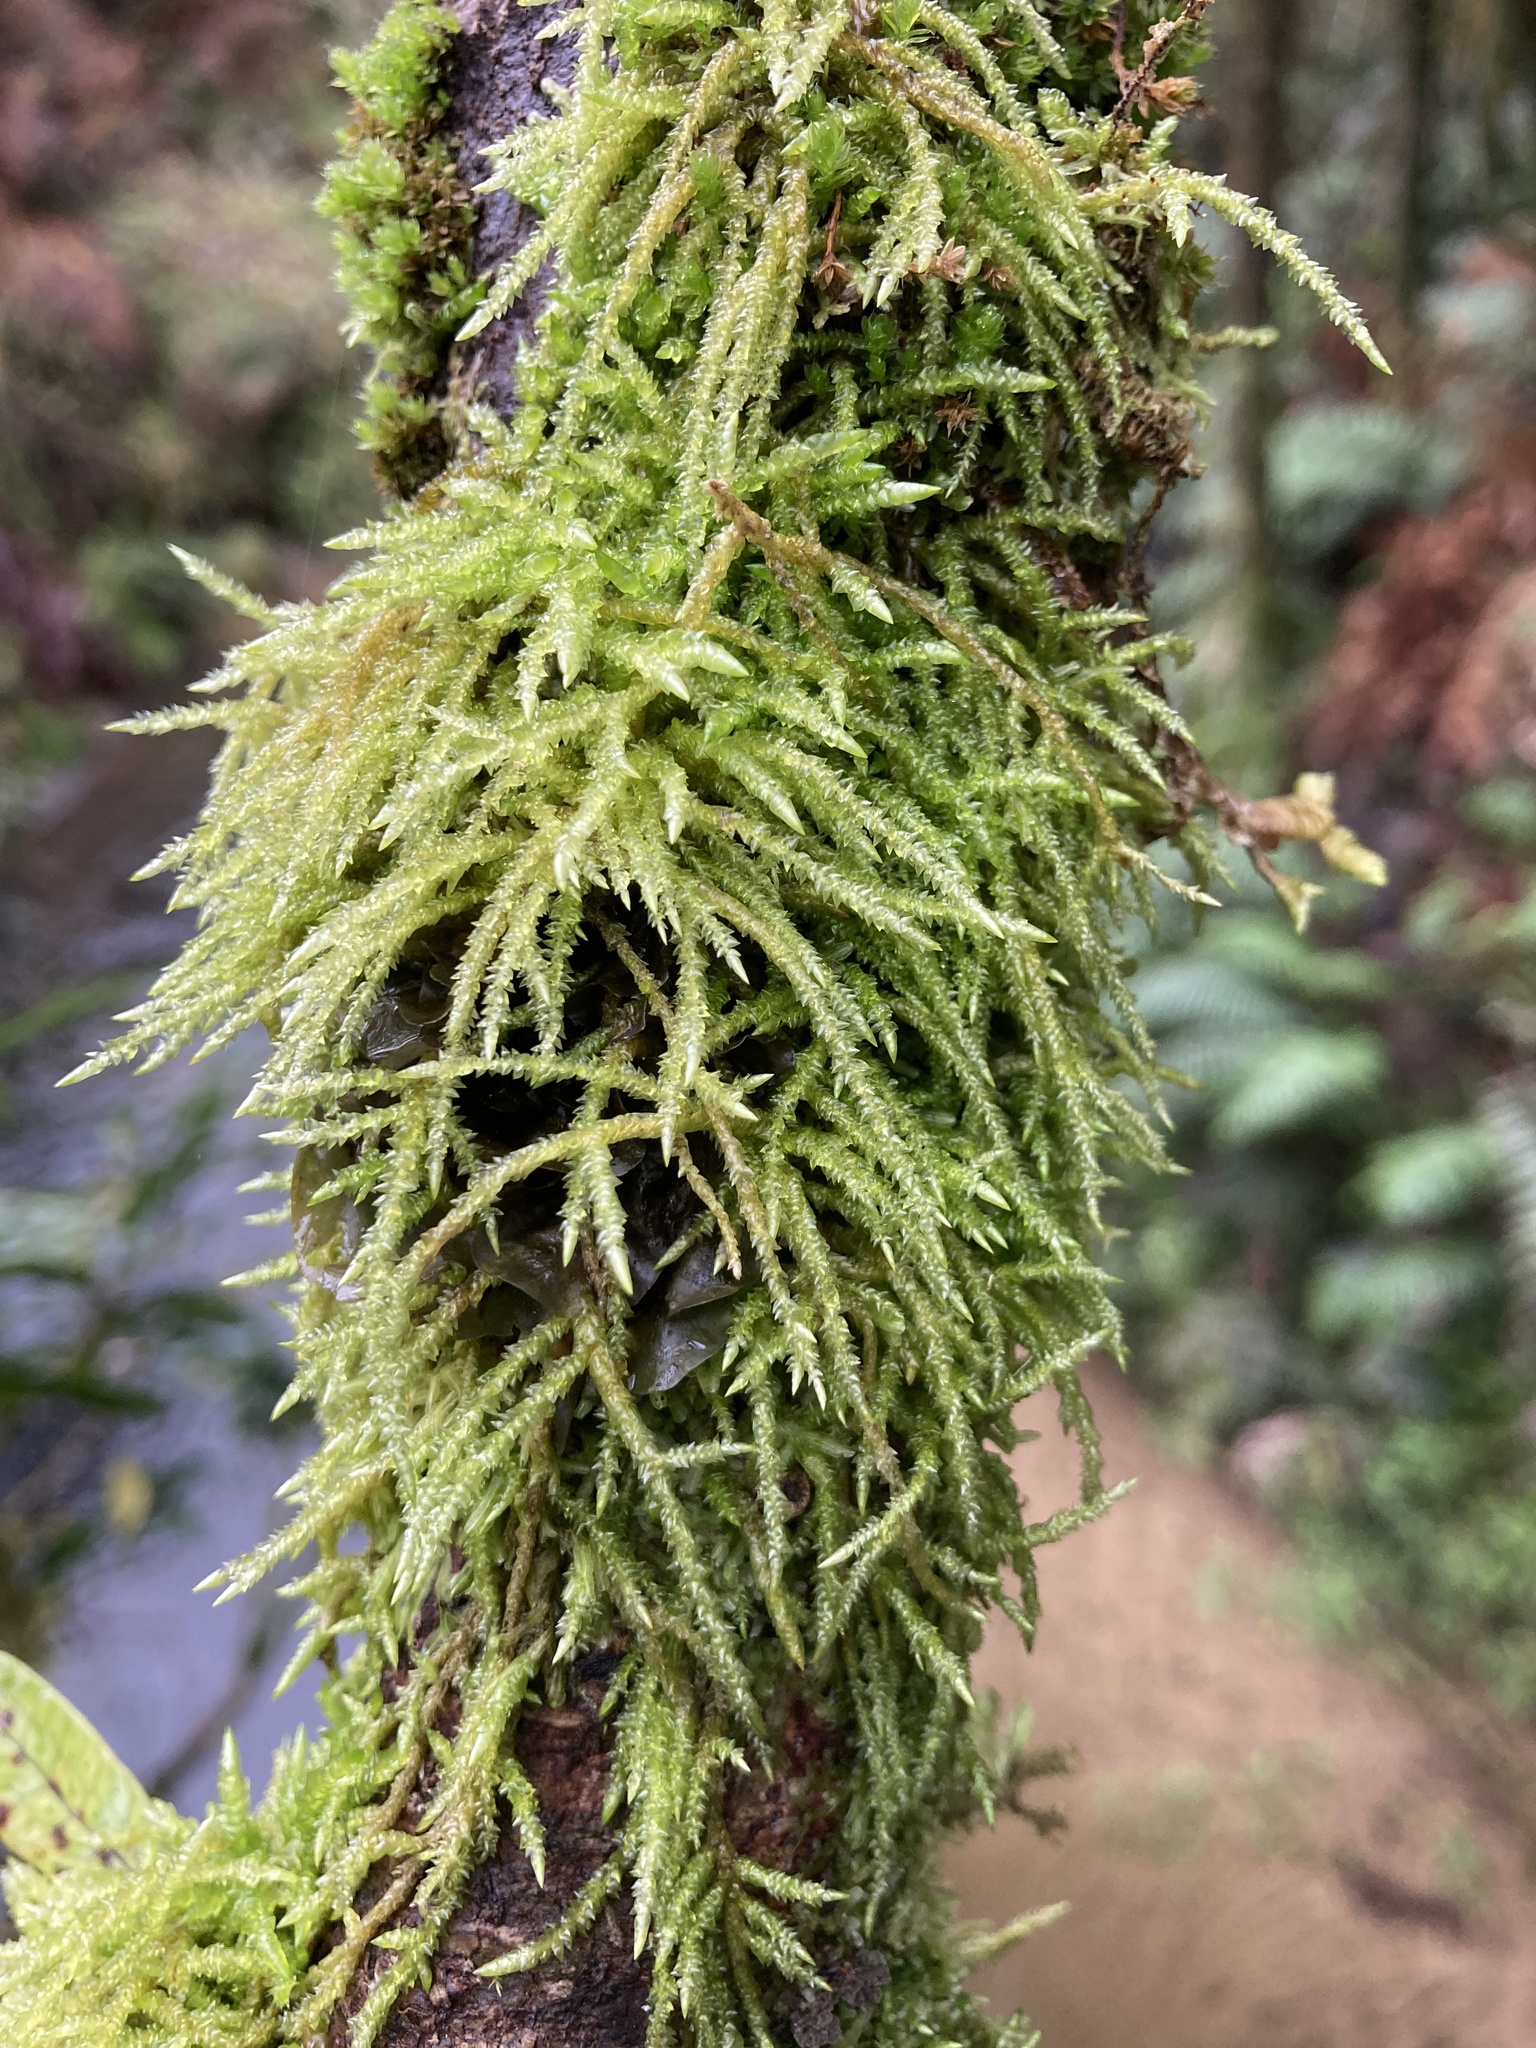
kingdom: Plantae
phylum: Bryophyta
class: Bryopsida
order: Hypnales
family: Acrocladiaceae
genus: Acrocladium
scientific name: Acrocladium chlamydophyllum
